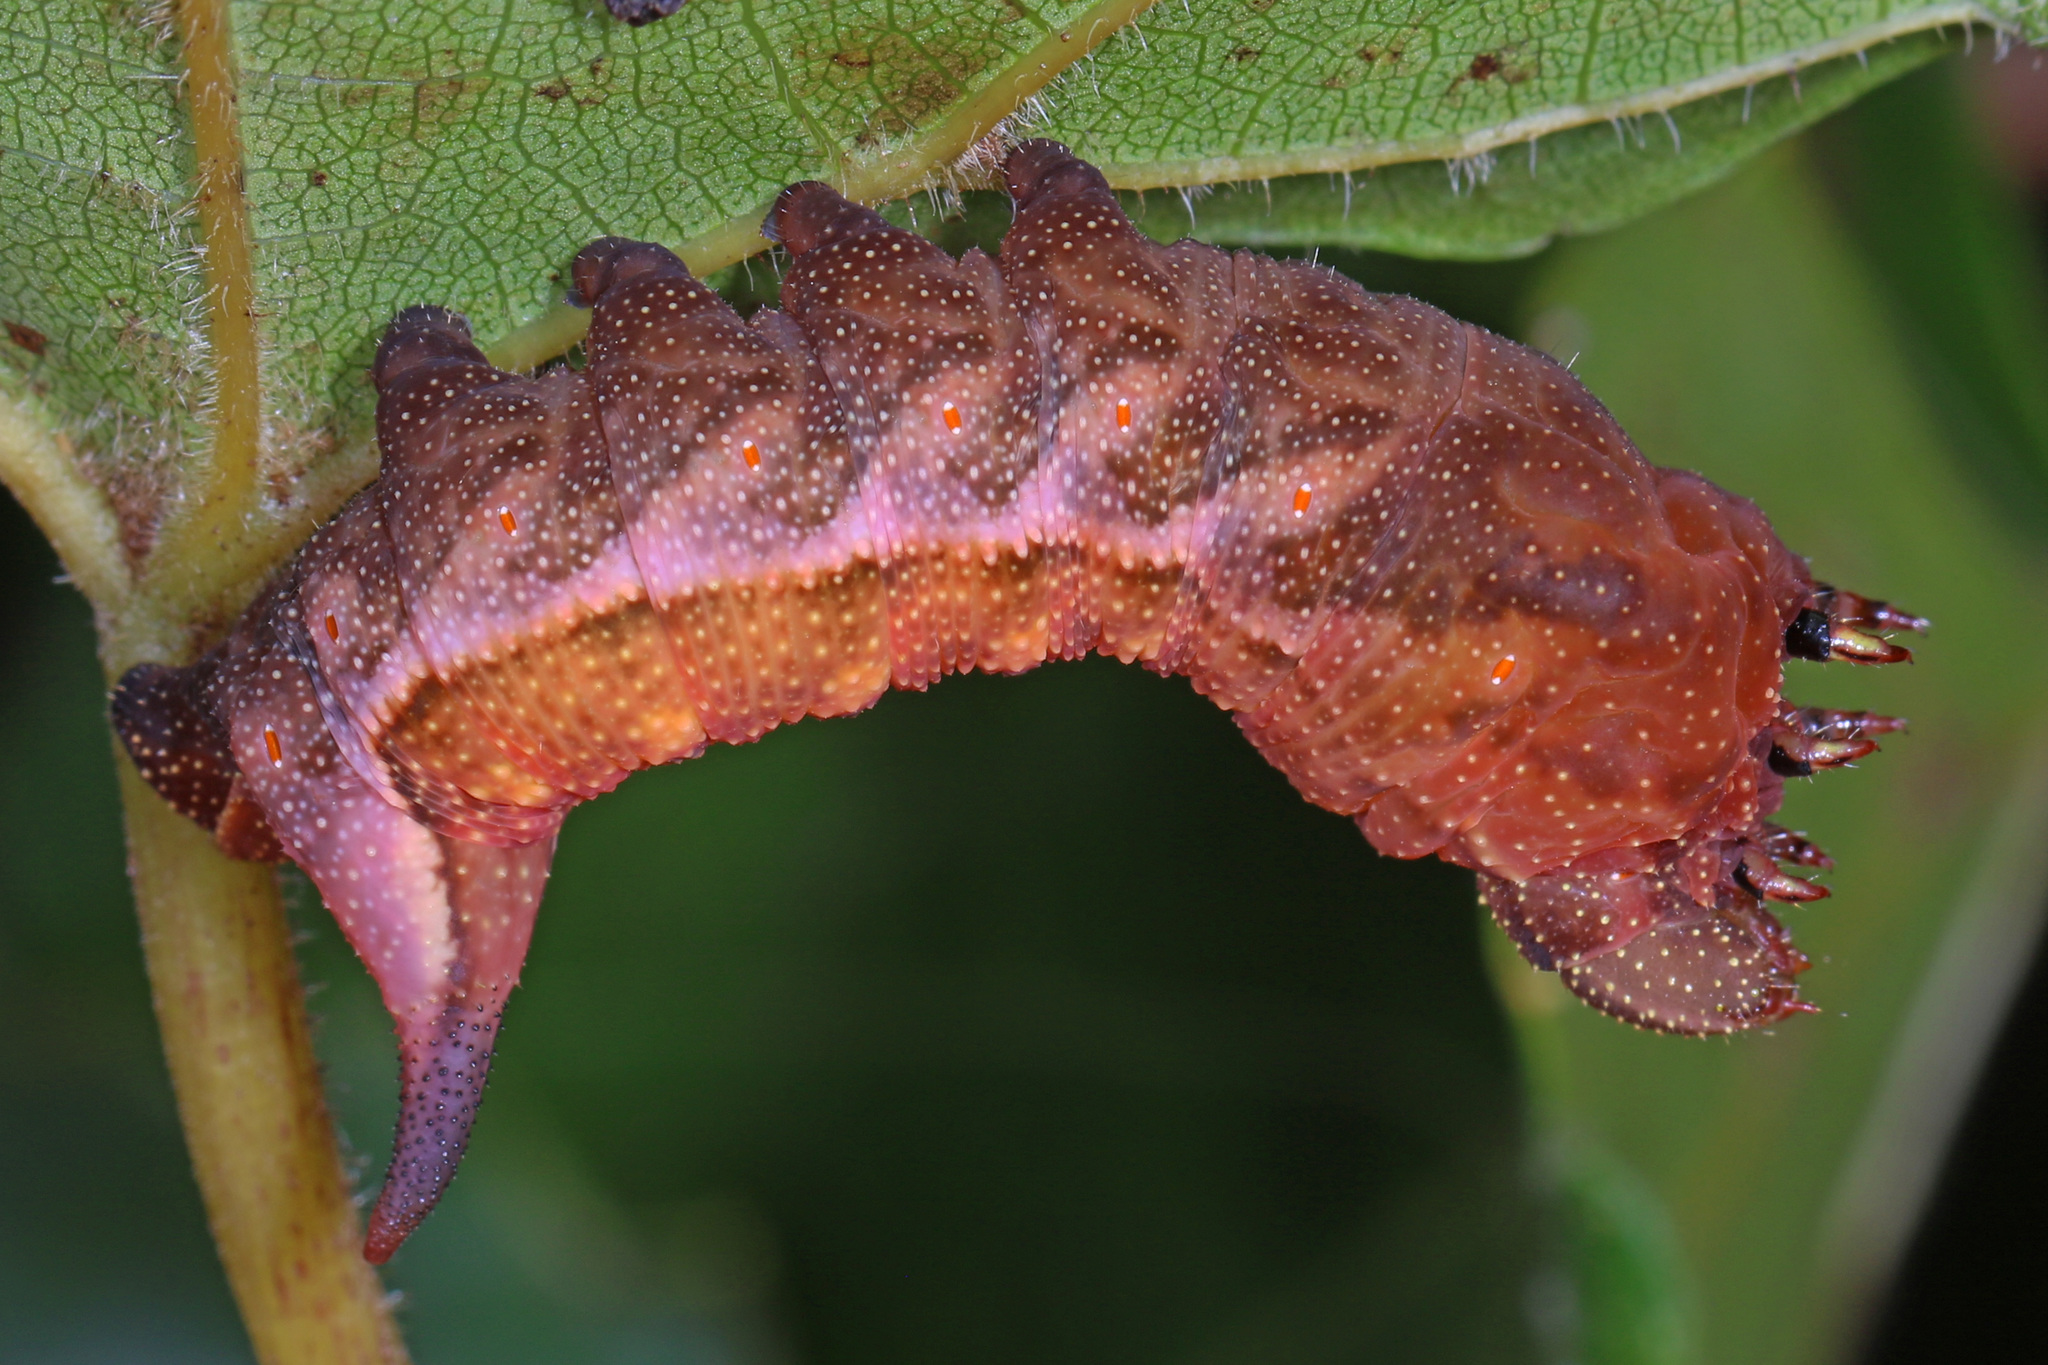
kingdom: Animalia
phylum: Arthropoda
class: Insecta
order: Lepidoptera
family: Sphingidae
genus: Darapsa
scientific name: Darapsa myron
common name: Hog sphinx
